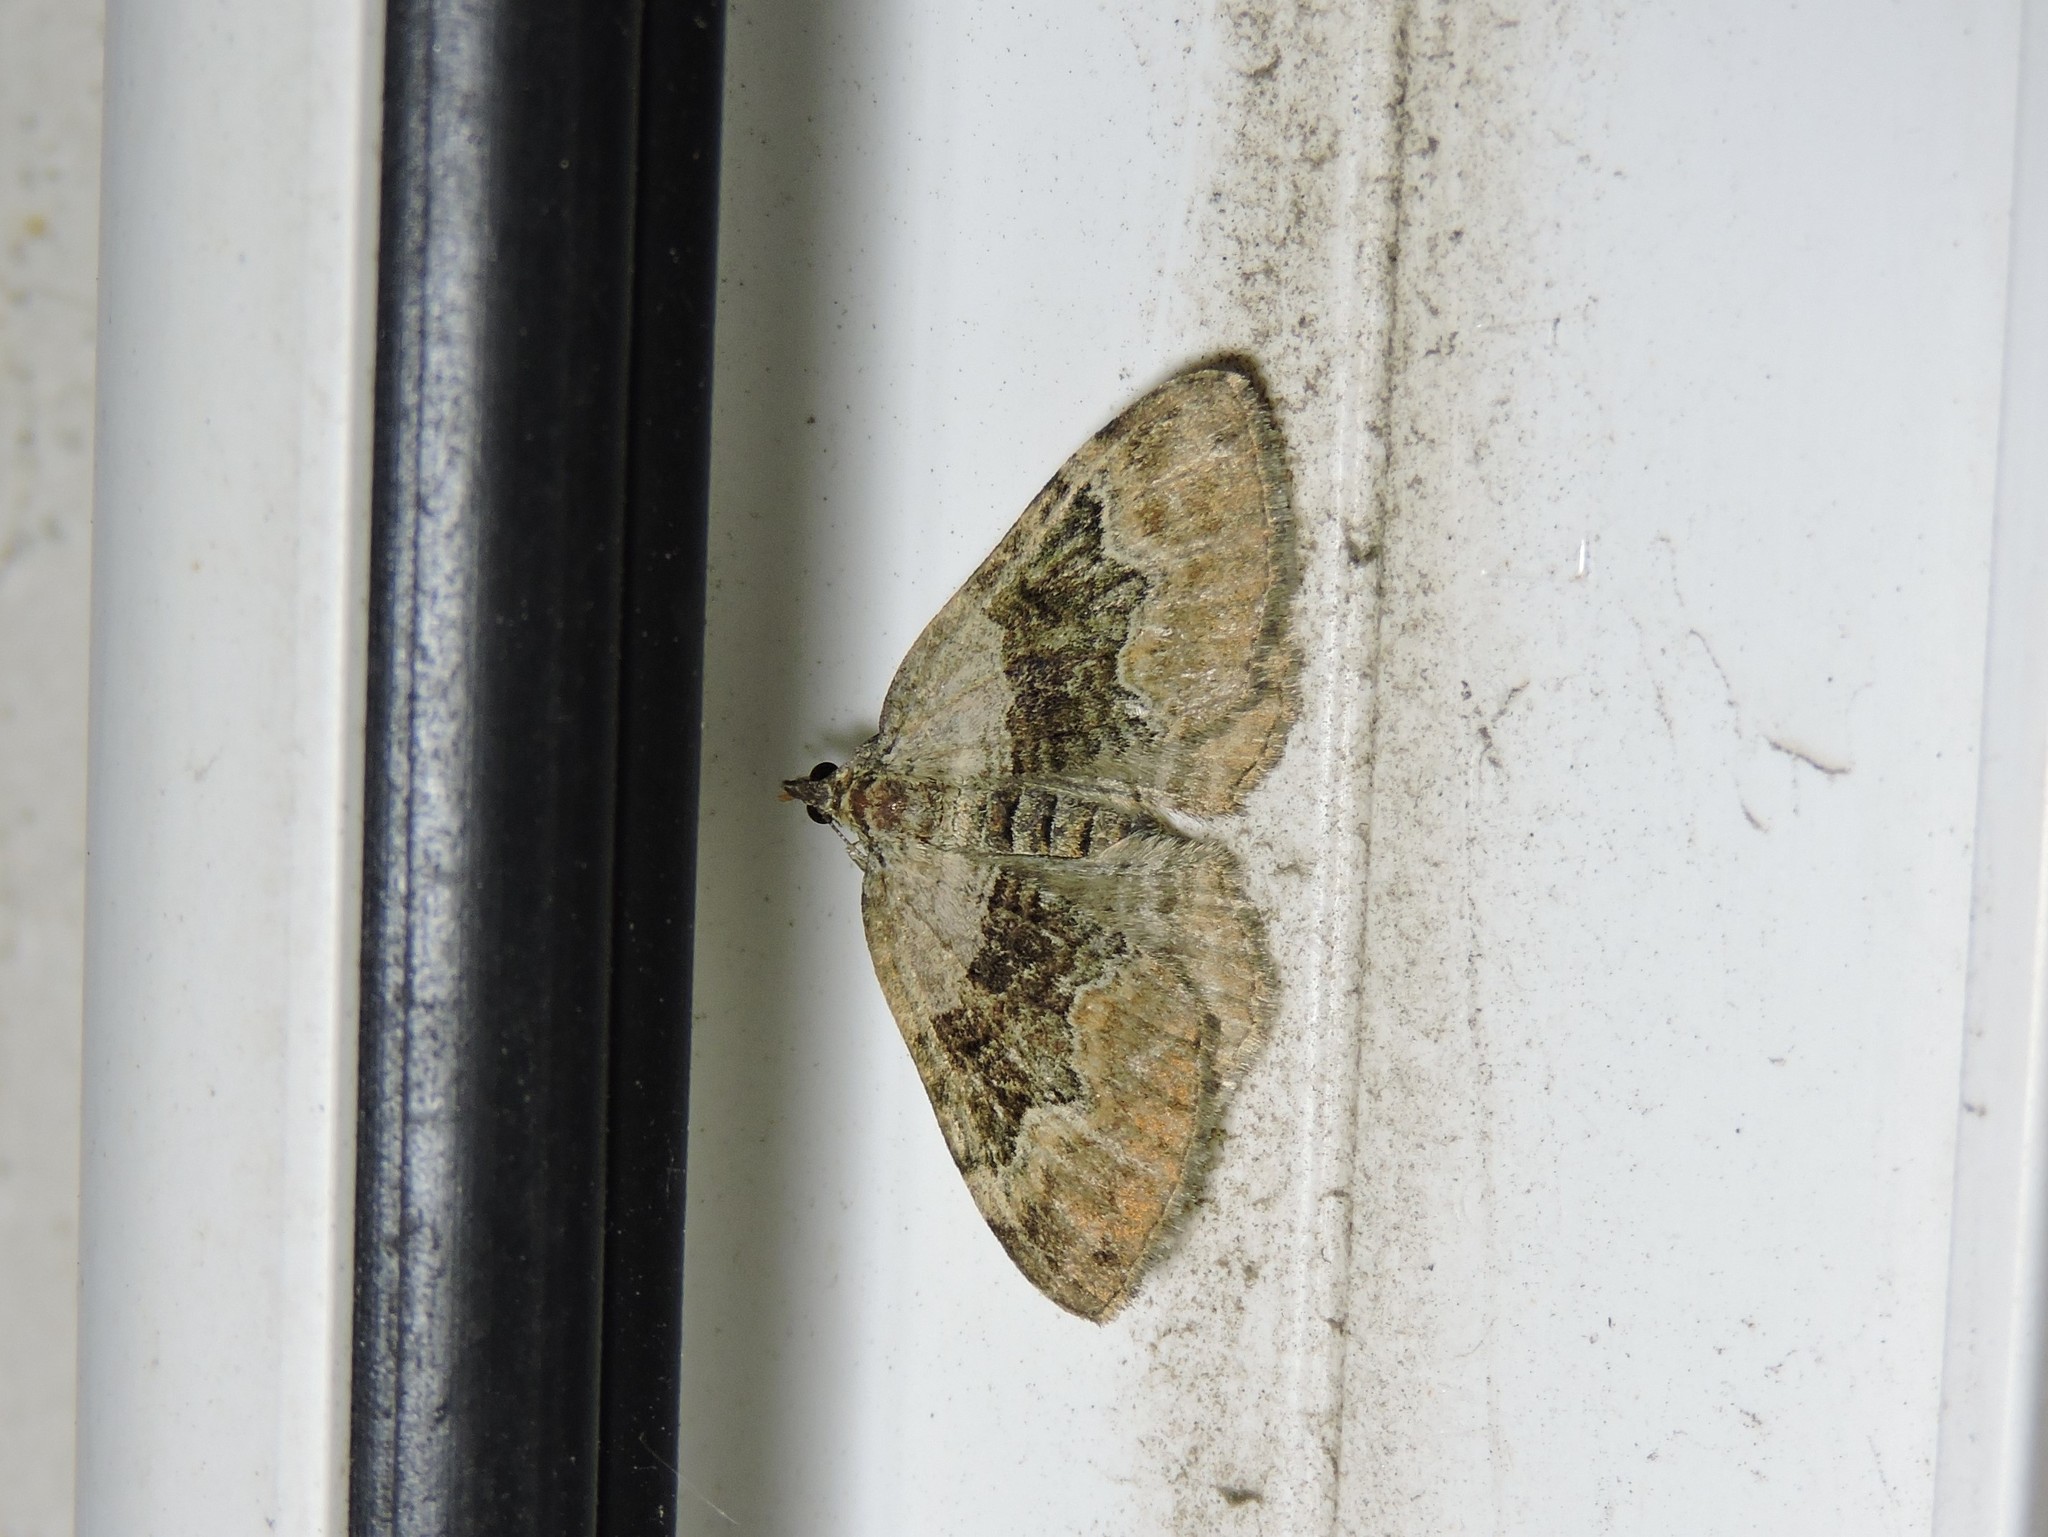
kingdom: Animalia
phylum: Arthropoda
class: Insecta
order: Lepidoptera
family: Geometridae
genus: Xanthorhoe
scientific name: Xanthorhoe quadrifasiata
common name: Large twin-spot carpet
